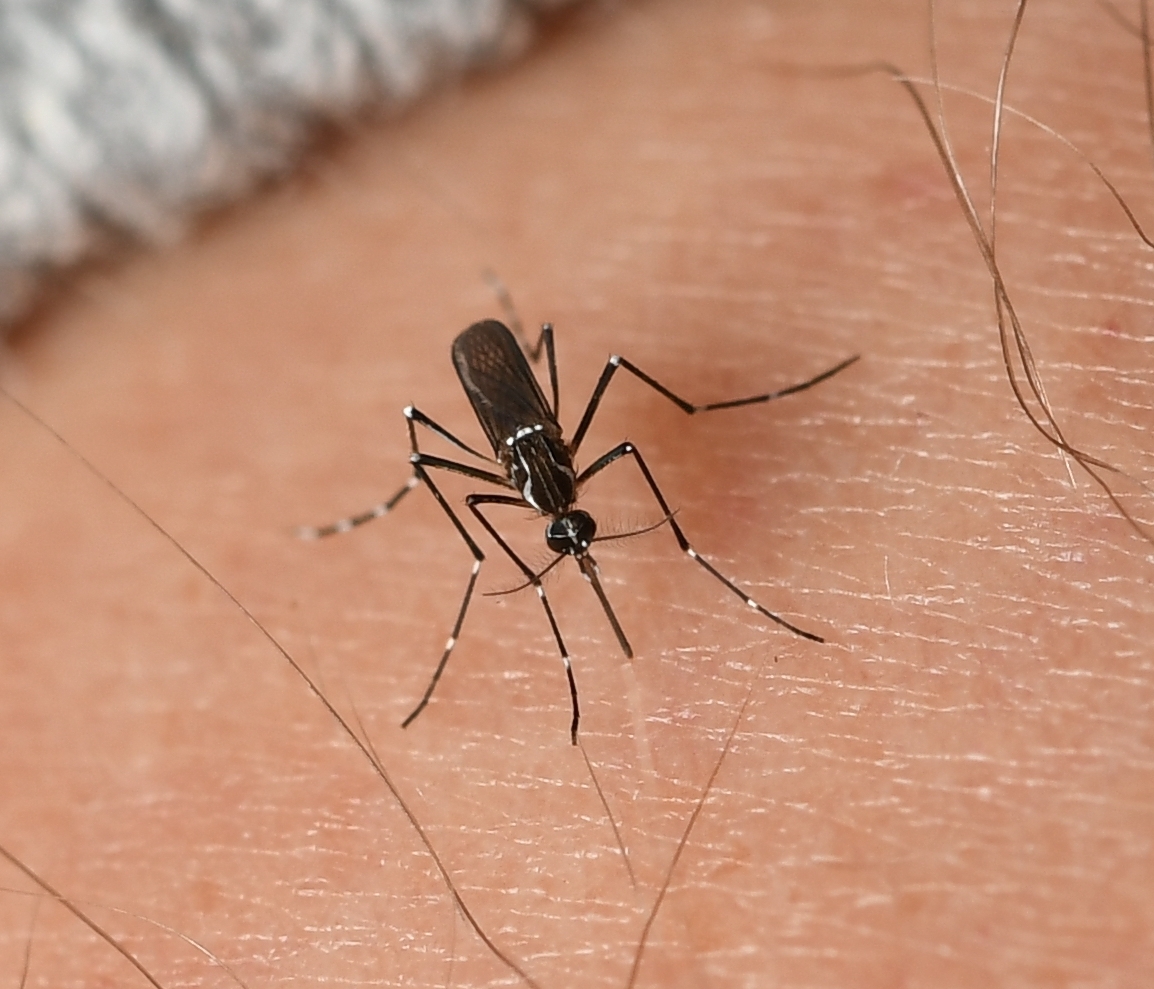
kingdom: Animalia
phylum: Arthropoda
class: Insecta
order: Diptera
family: Culicidae
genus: Aedes
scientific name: Aedes aegypti
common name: Yellow fever mosquito
